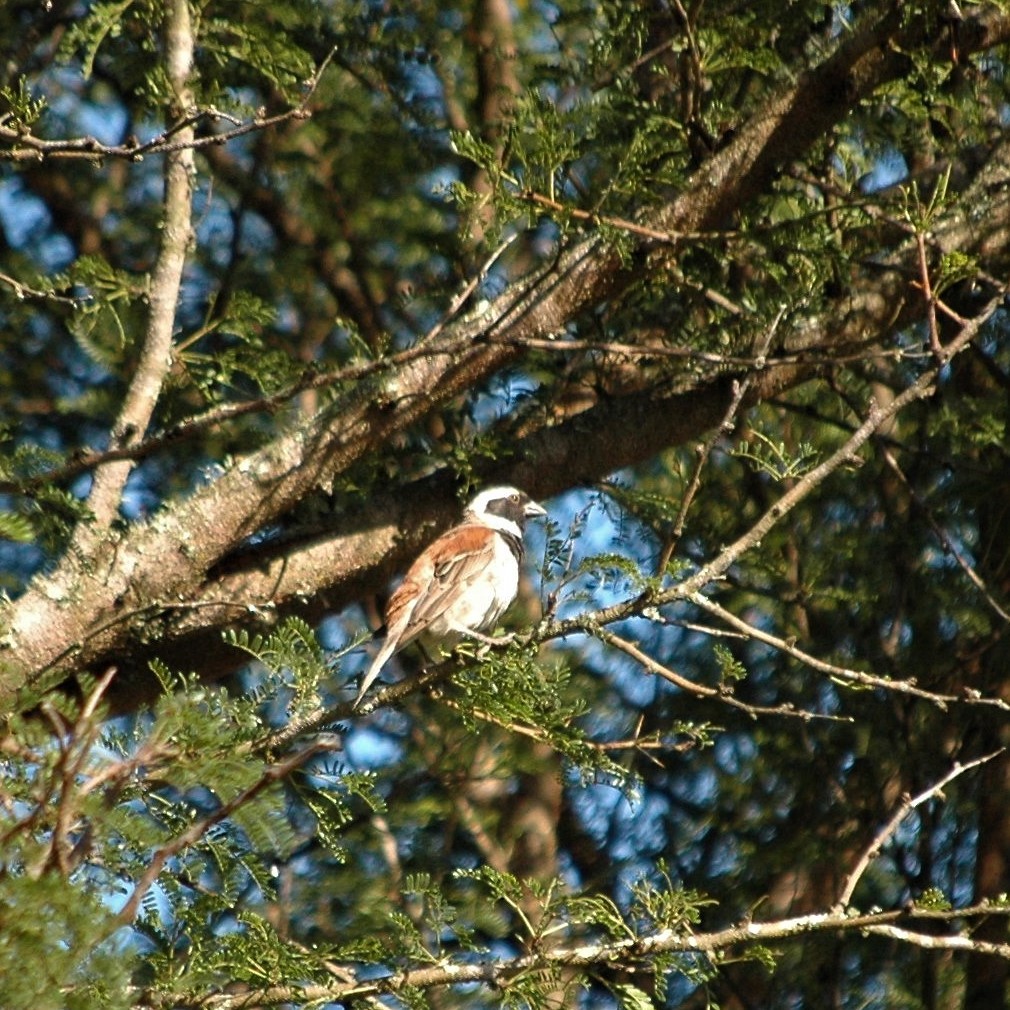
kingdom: Animalia
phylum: Chordata
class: Aves
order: Passeriformes
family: Passeridae
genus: Passer
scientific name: Passer melanurus
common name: Cape sparrow
